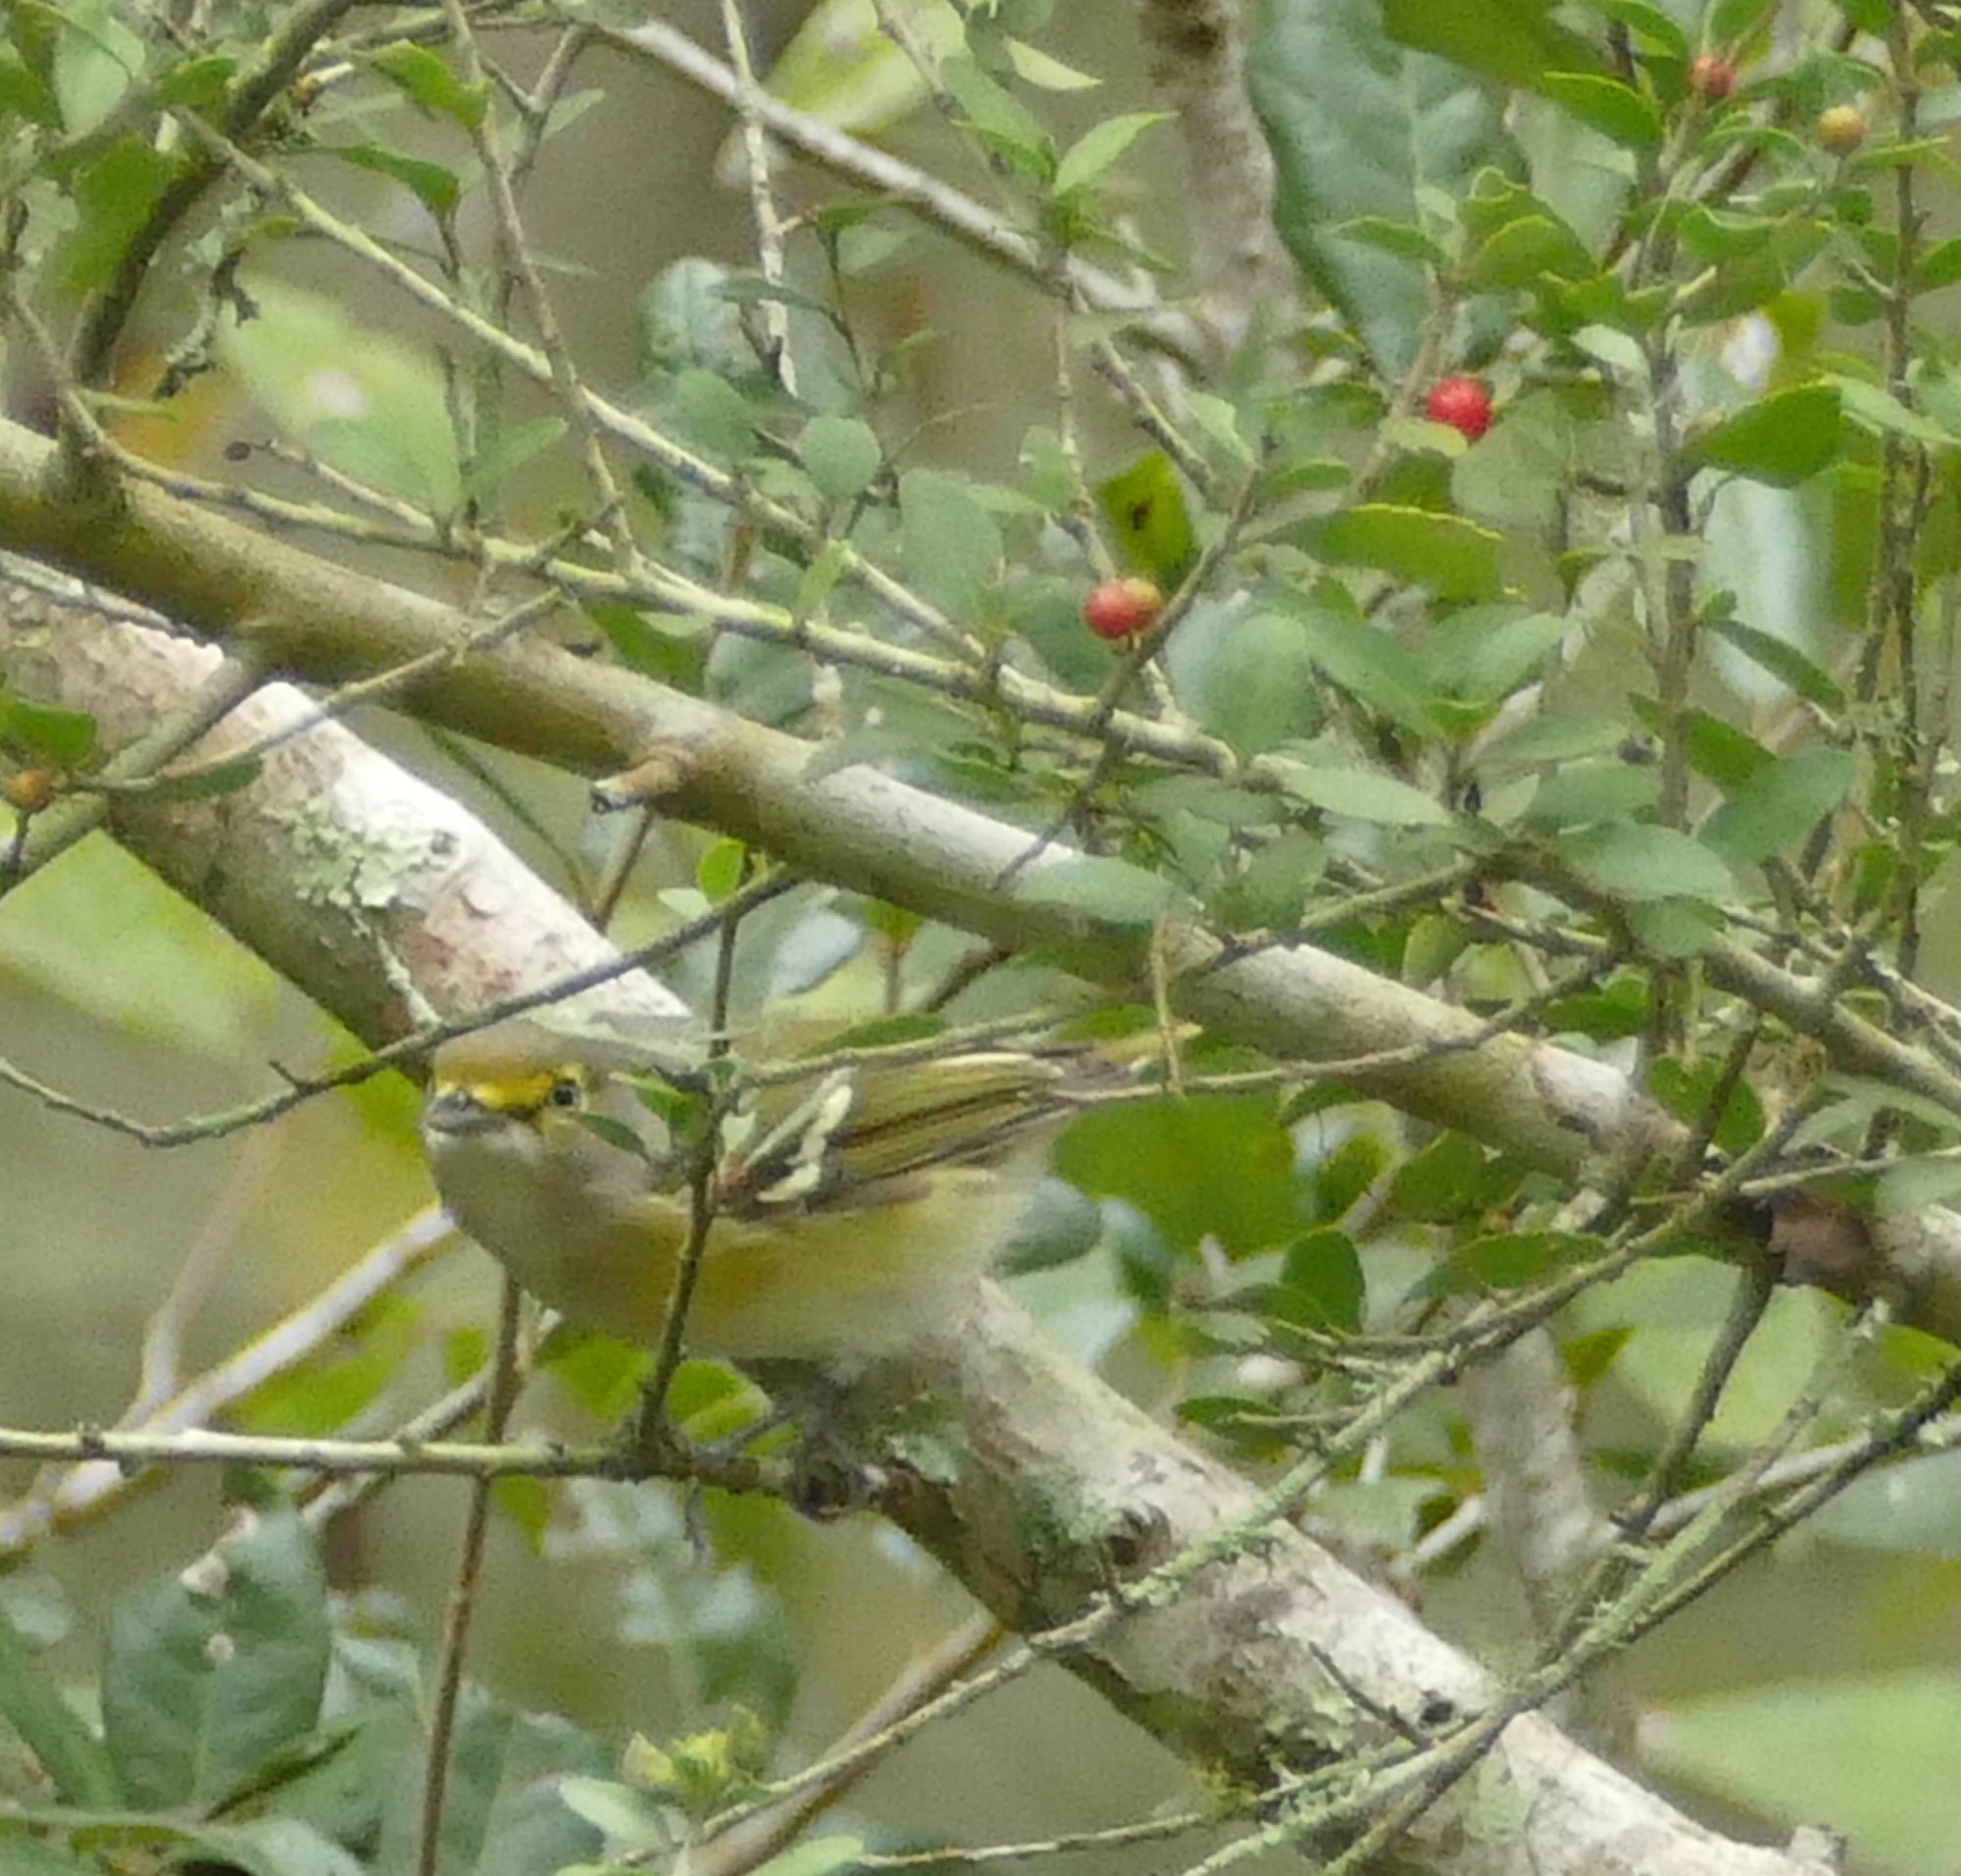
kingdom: Animalia
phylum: Chordata
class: Aves
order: Passeriformes
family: Vireonidae
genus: Vireo
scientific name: Vireo griseus
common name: White-eyed vireo
